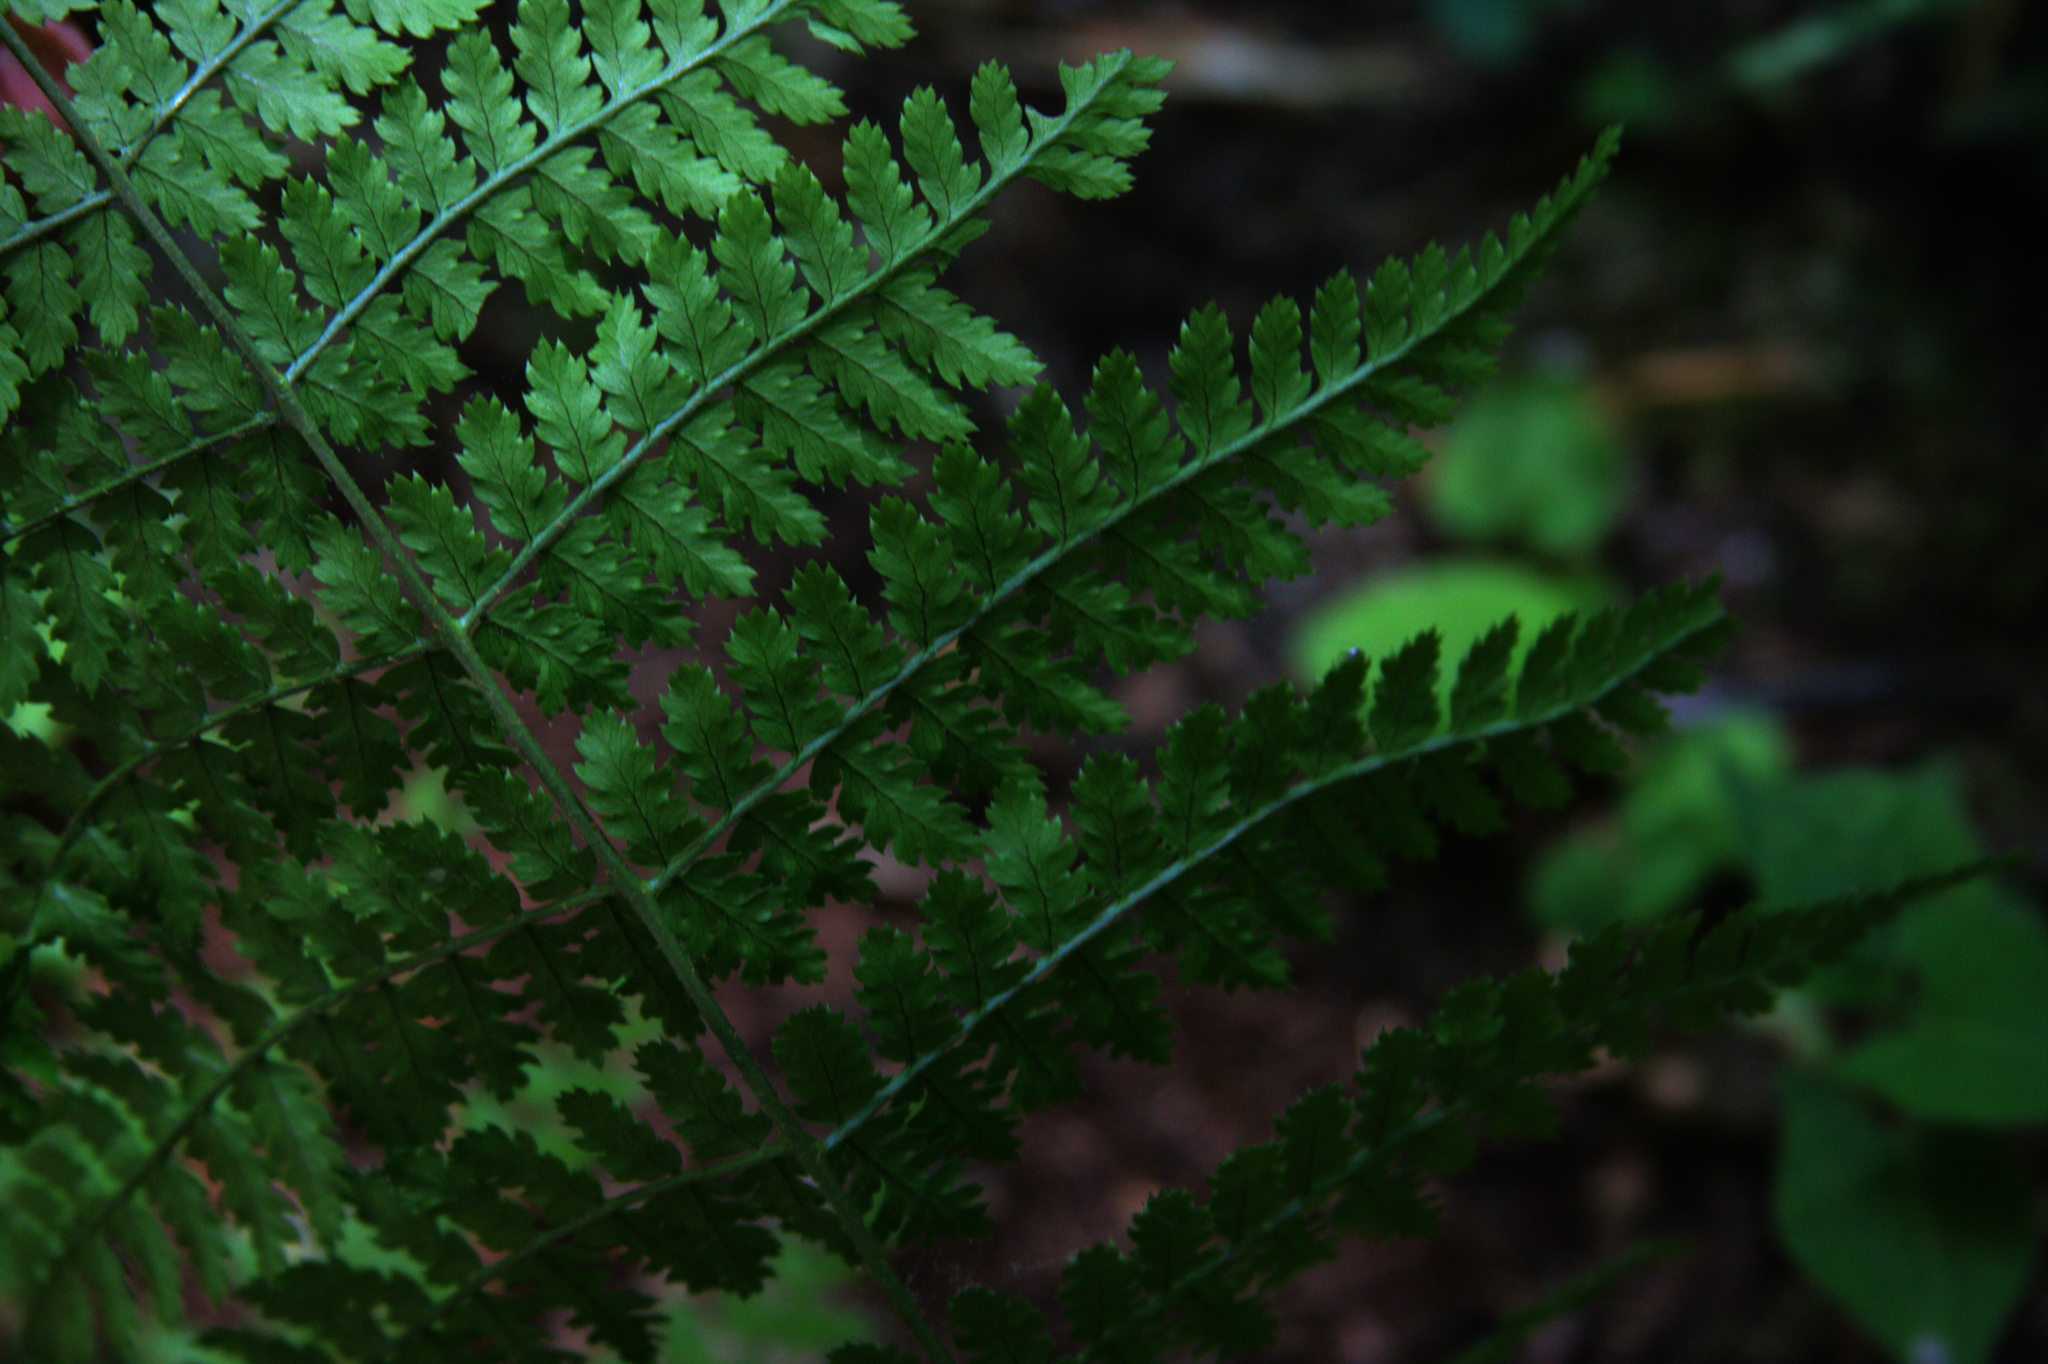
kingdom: Plantae
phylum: Tracheophyta
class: Polypodiopsida
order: Polypodiales
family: Dryopteridaceae
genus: Dryopteris
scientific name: Dryopteris intermedia
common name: Evergreen wood fern
